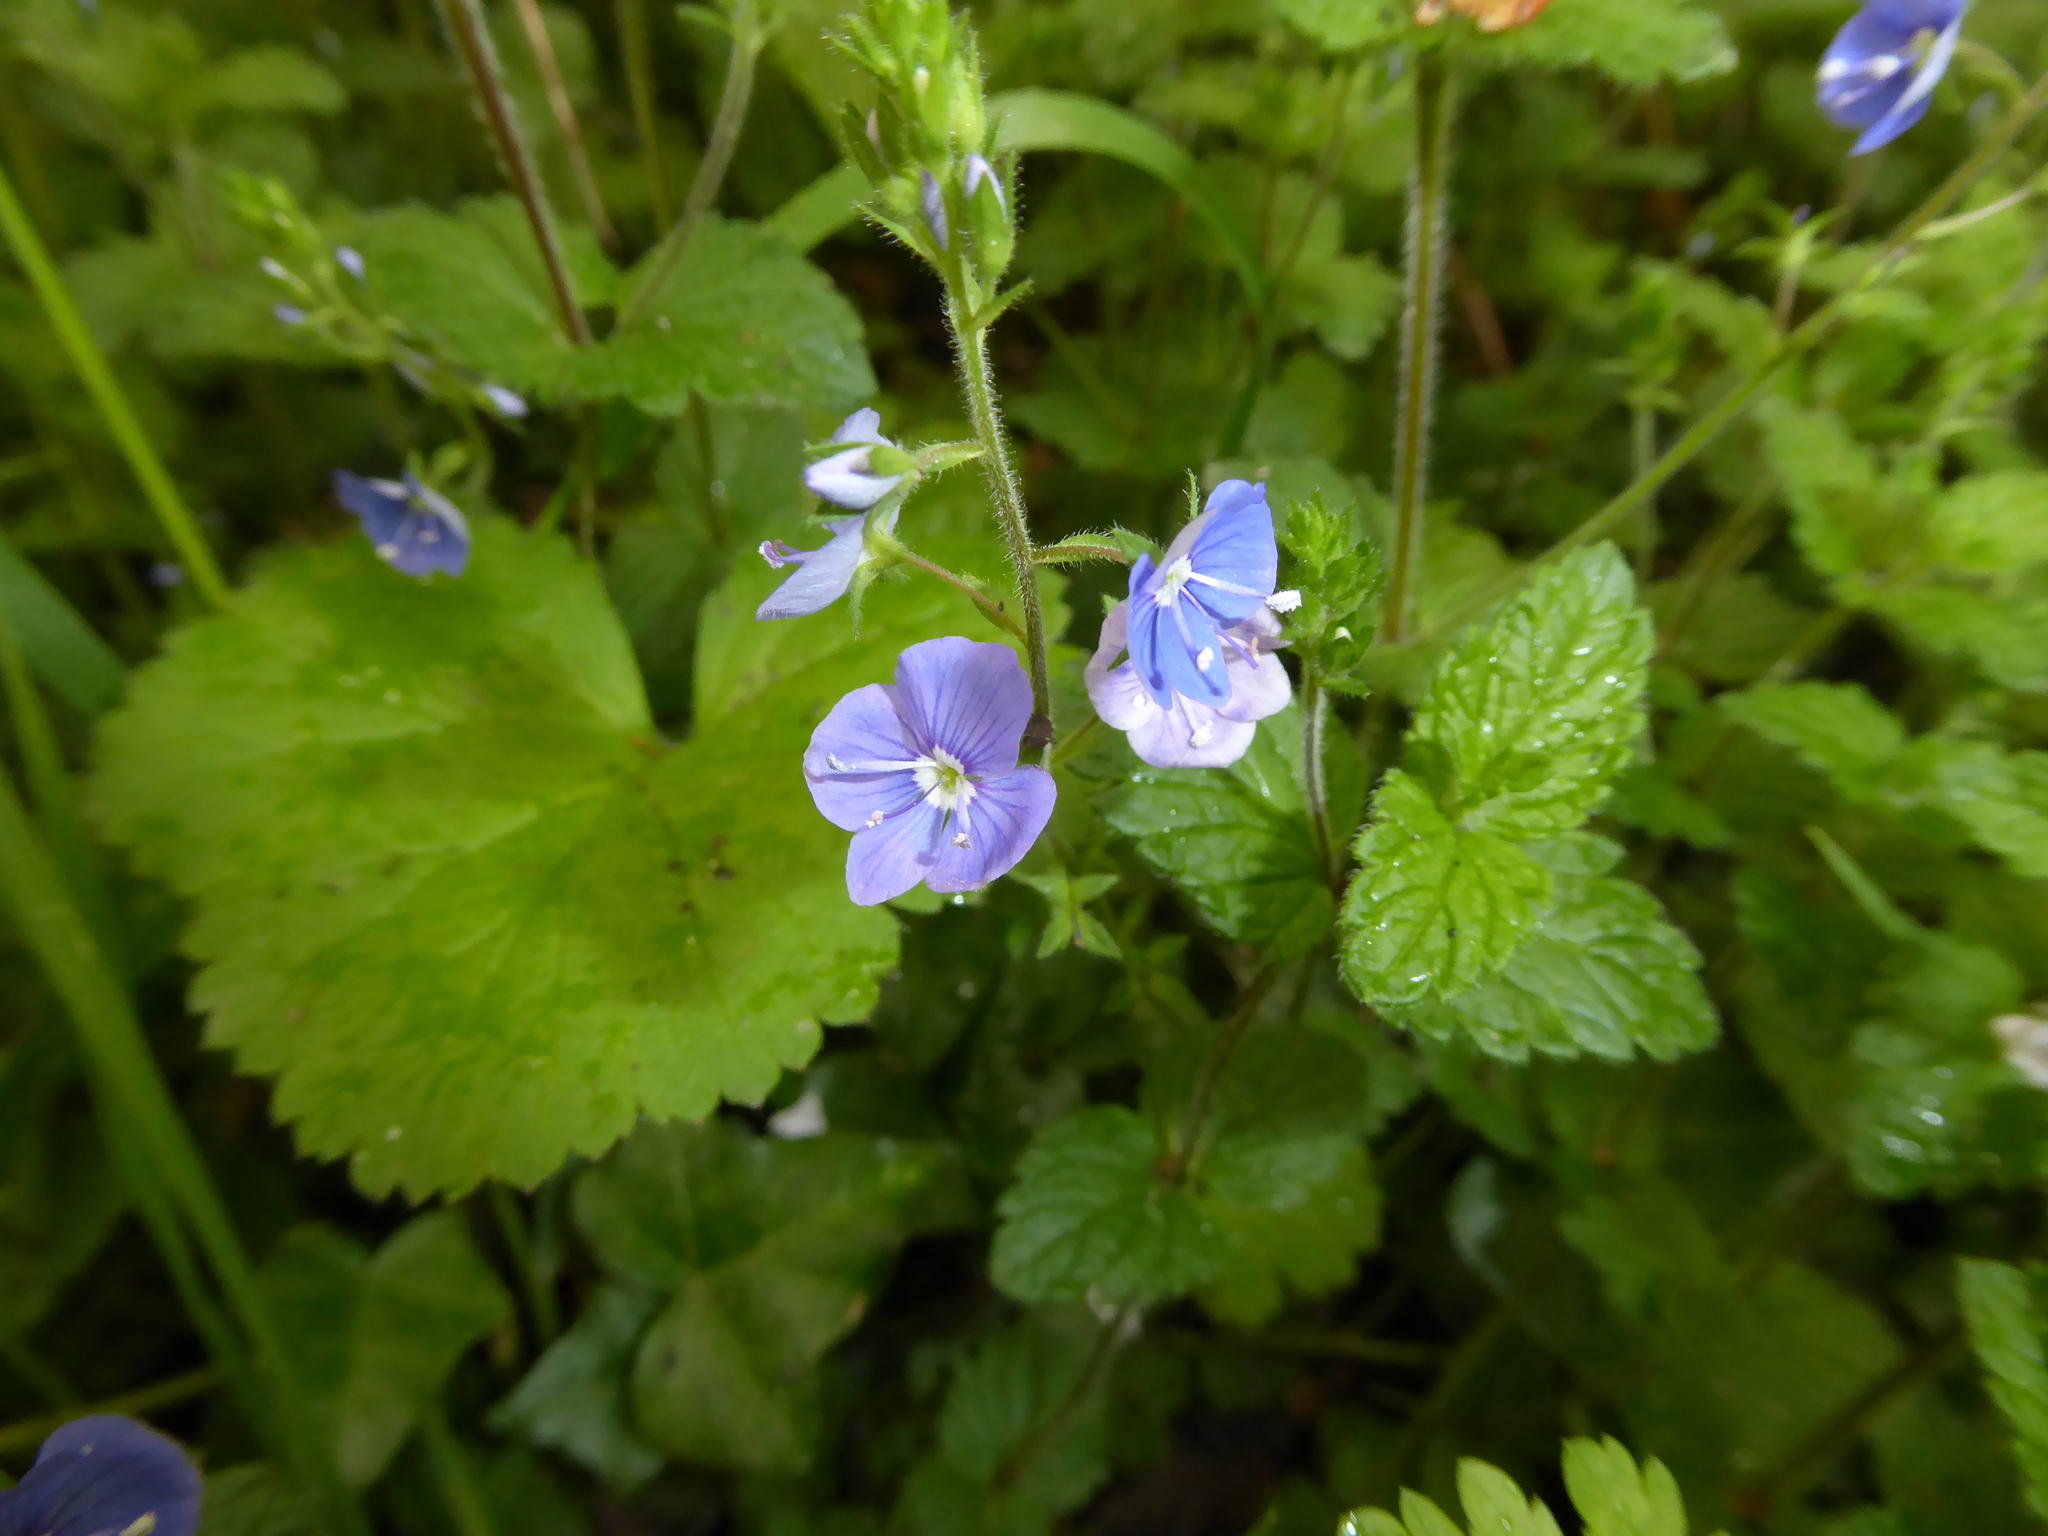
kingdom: Plantae
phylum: Tracheophyta
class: Magnoliopsida
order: Lamiales
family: Plantaginaceae
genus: Veronica
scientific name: Veronica chamaedrys
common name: Germander speedwell
